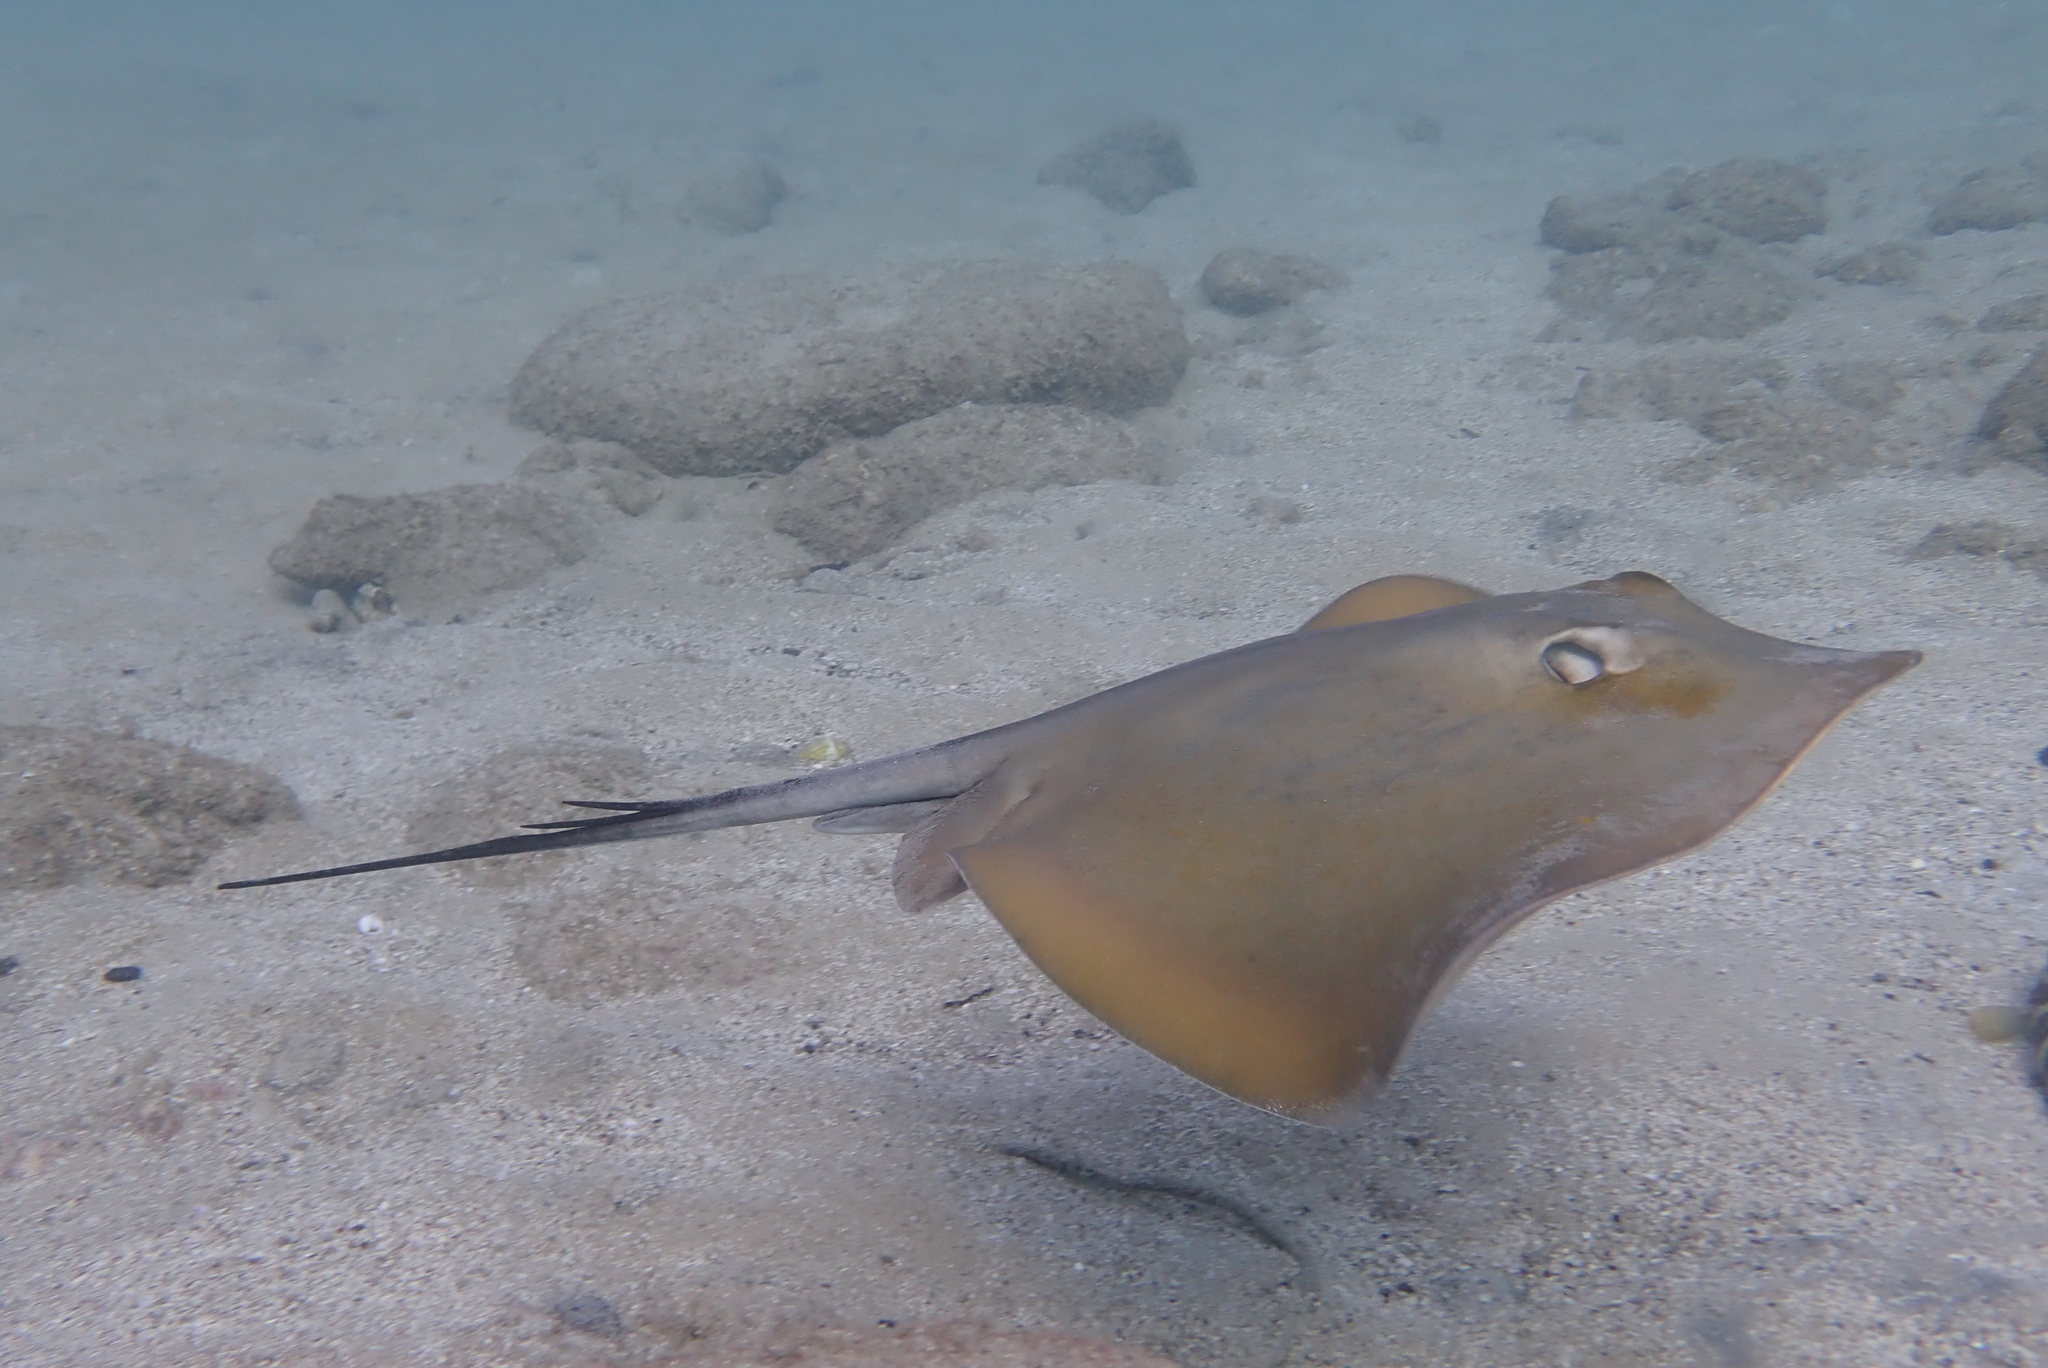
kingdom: Animalia
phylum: Chordata
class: Elasmobranchii
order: Myliobatiformes
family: Dasyatidae
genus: Dasyatis
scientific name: Dasyatis pastinaca
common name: Common stingray
